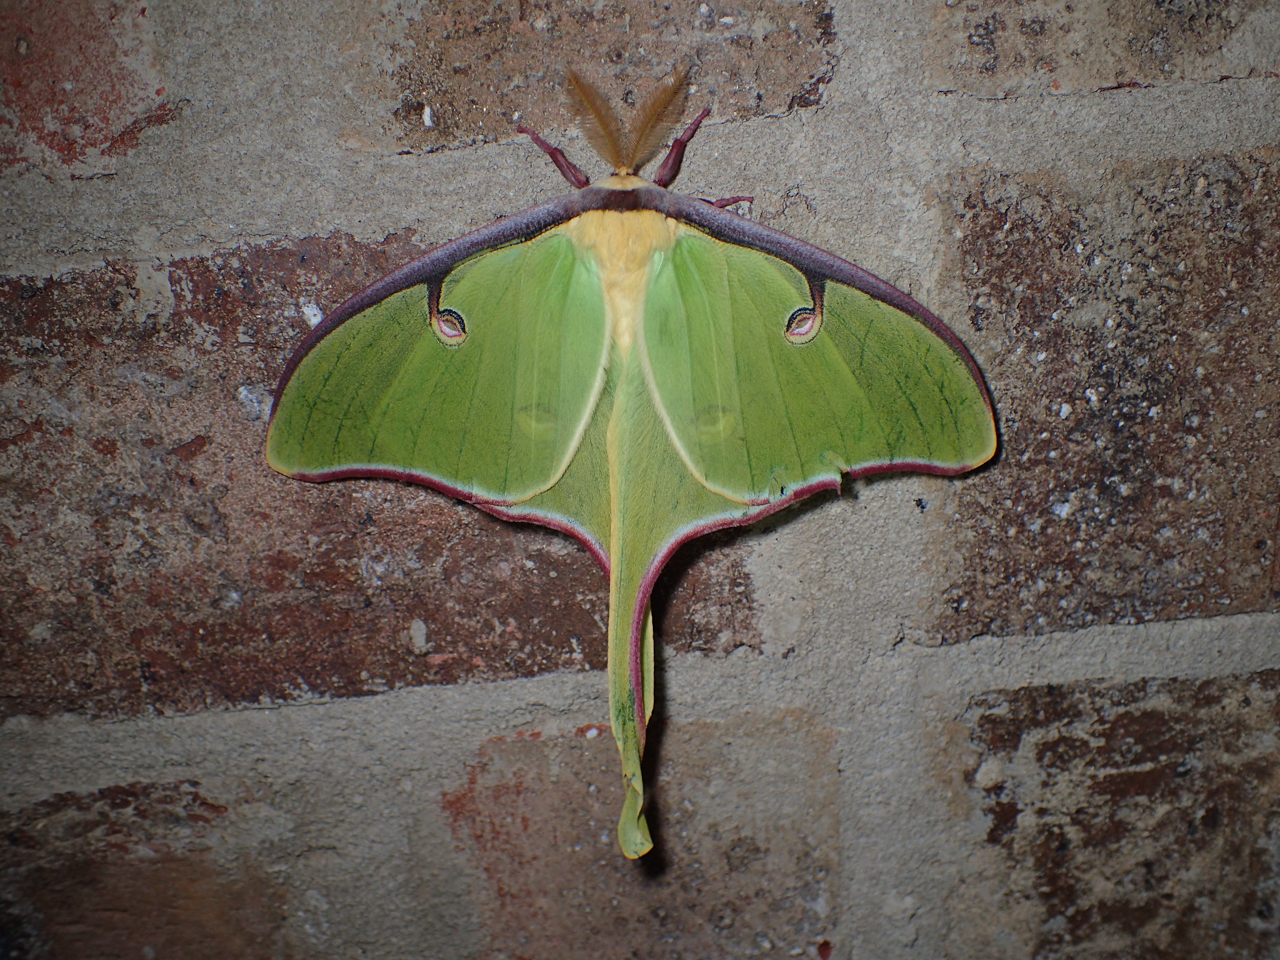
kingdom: Animalia
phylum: Arthropoda
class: Insecta
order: Lepidoptera
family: Saturniidae
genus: Actias
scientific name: Actias luna
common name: Luna moth
